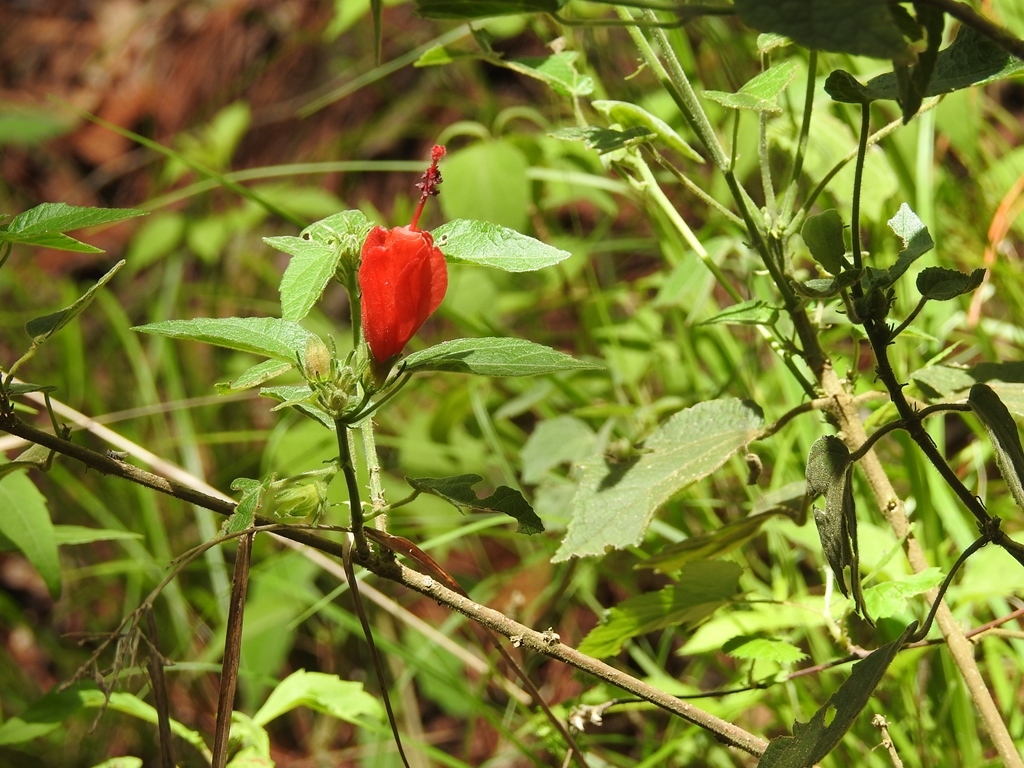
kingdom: Plantae
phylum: Tracheophyta
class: Magnoliopsida
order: Malvales
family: Malvaceae
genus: Malvaviscus
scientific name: Malvaviscus arboreus
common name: Wax mallow
